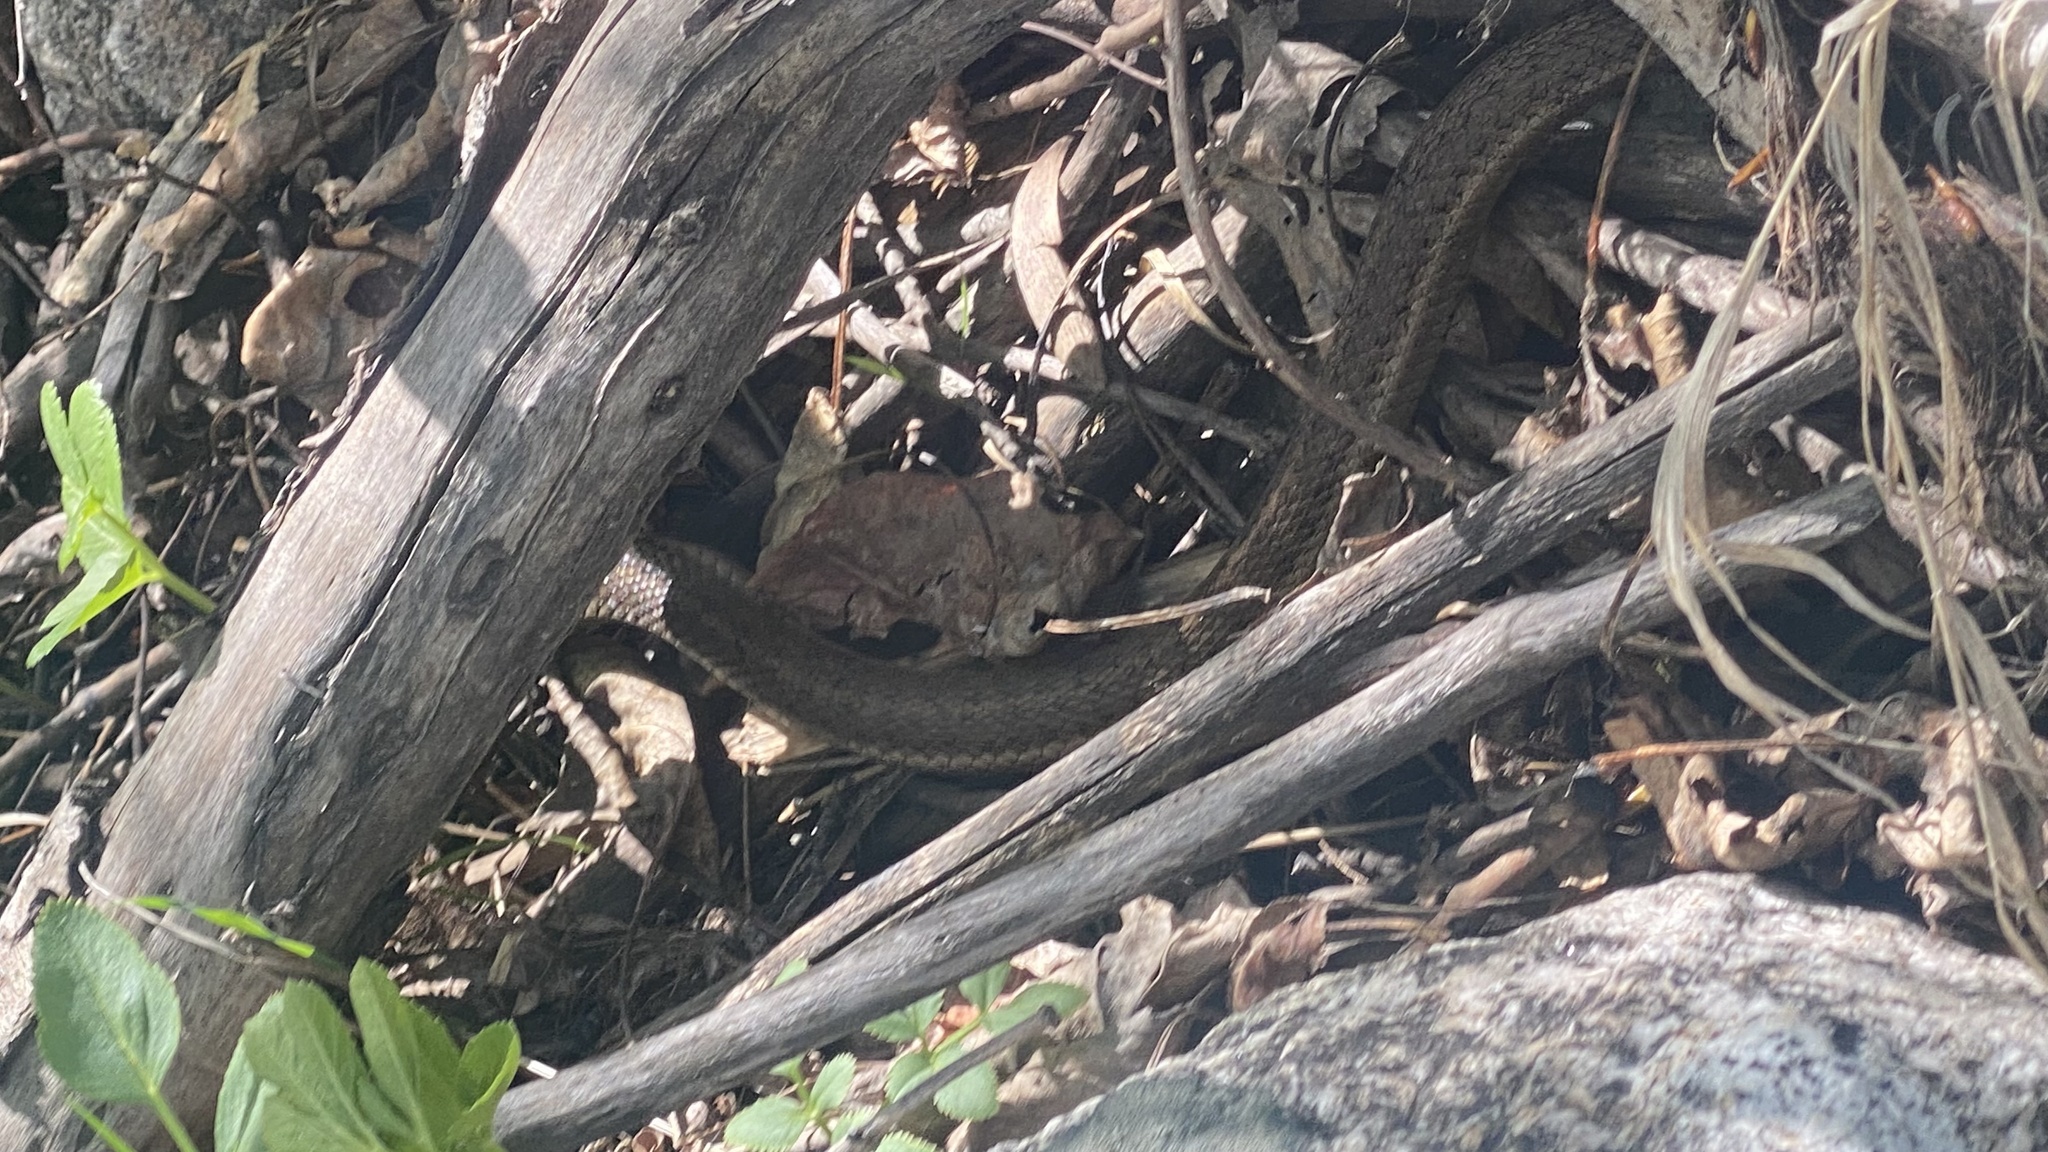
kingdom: Animalia
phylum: Chordata
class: Squamata
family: Colubridae
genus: Thamnophis
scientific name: Thamnophis elegans
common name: Western terrestrial garter snake
